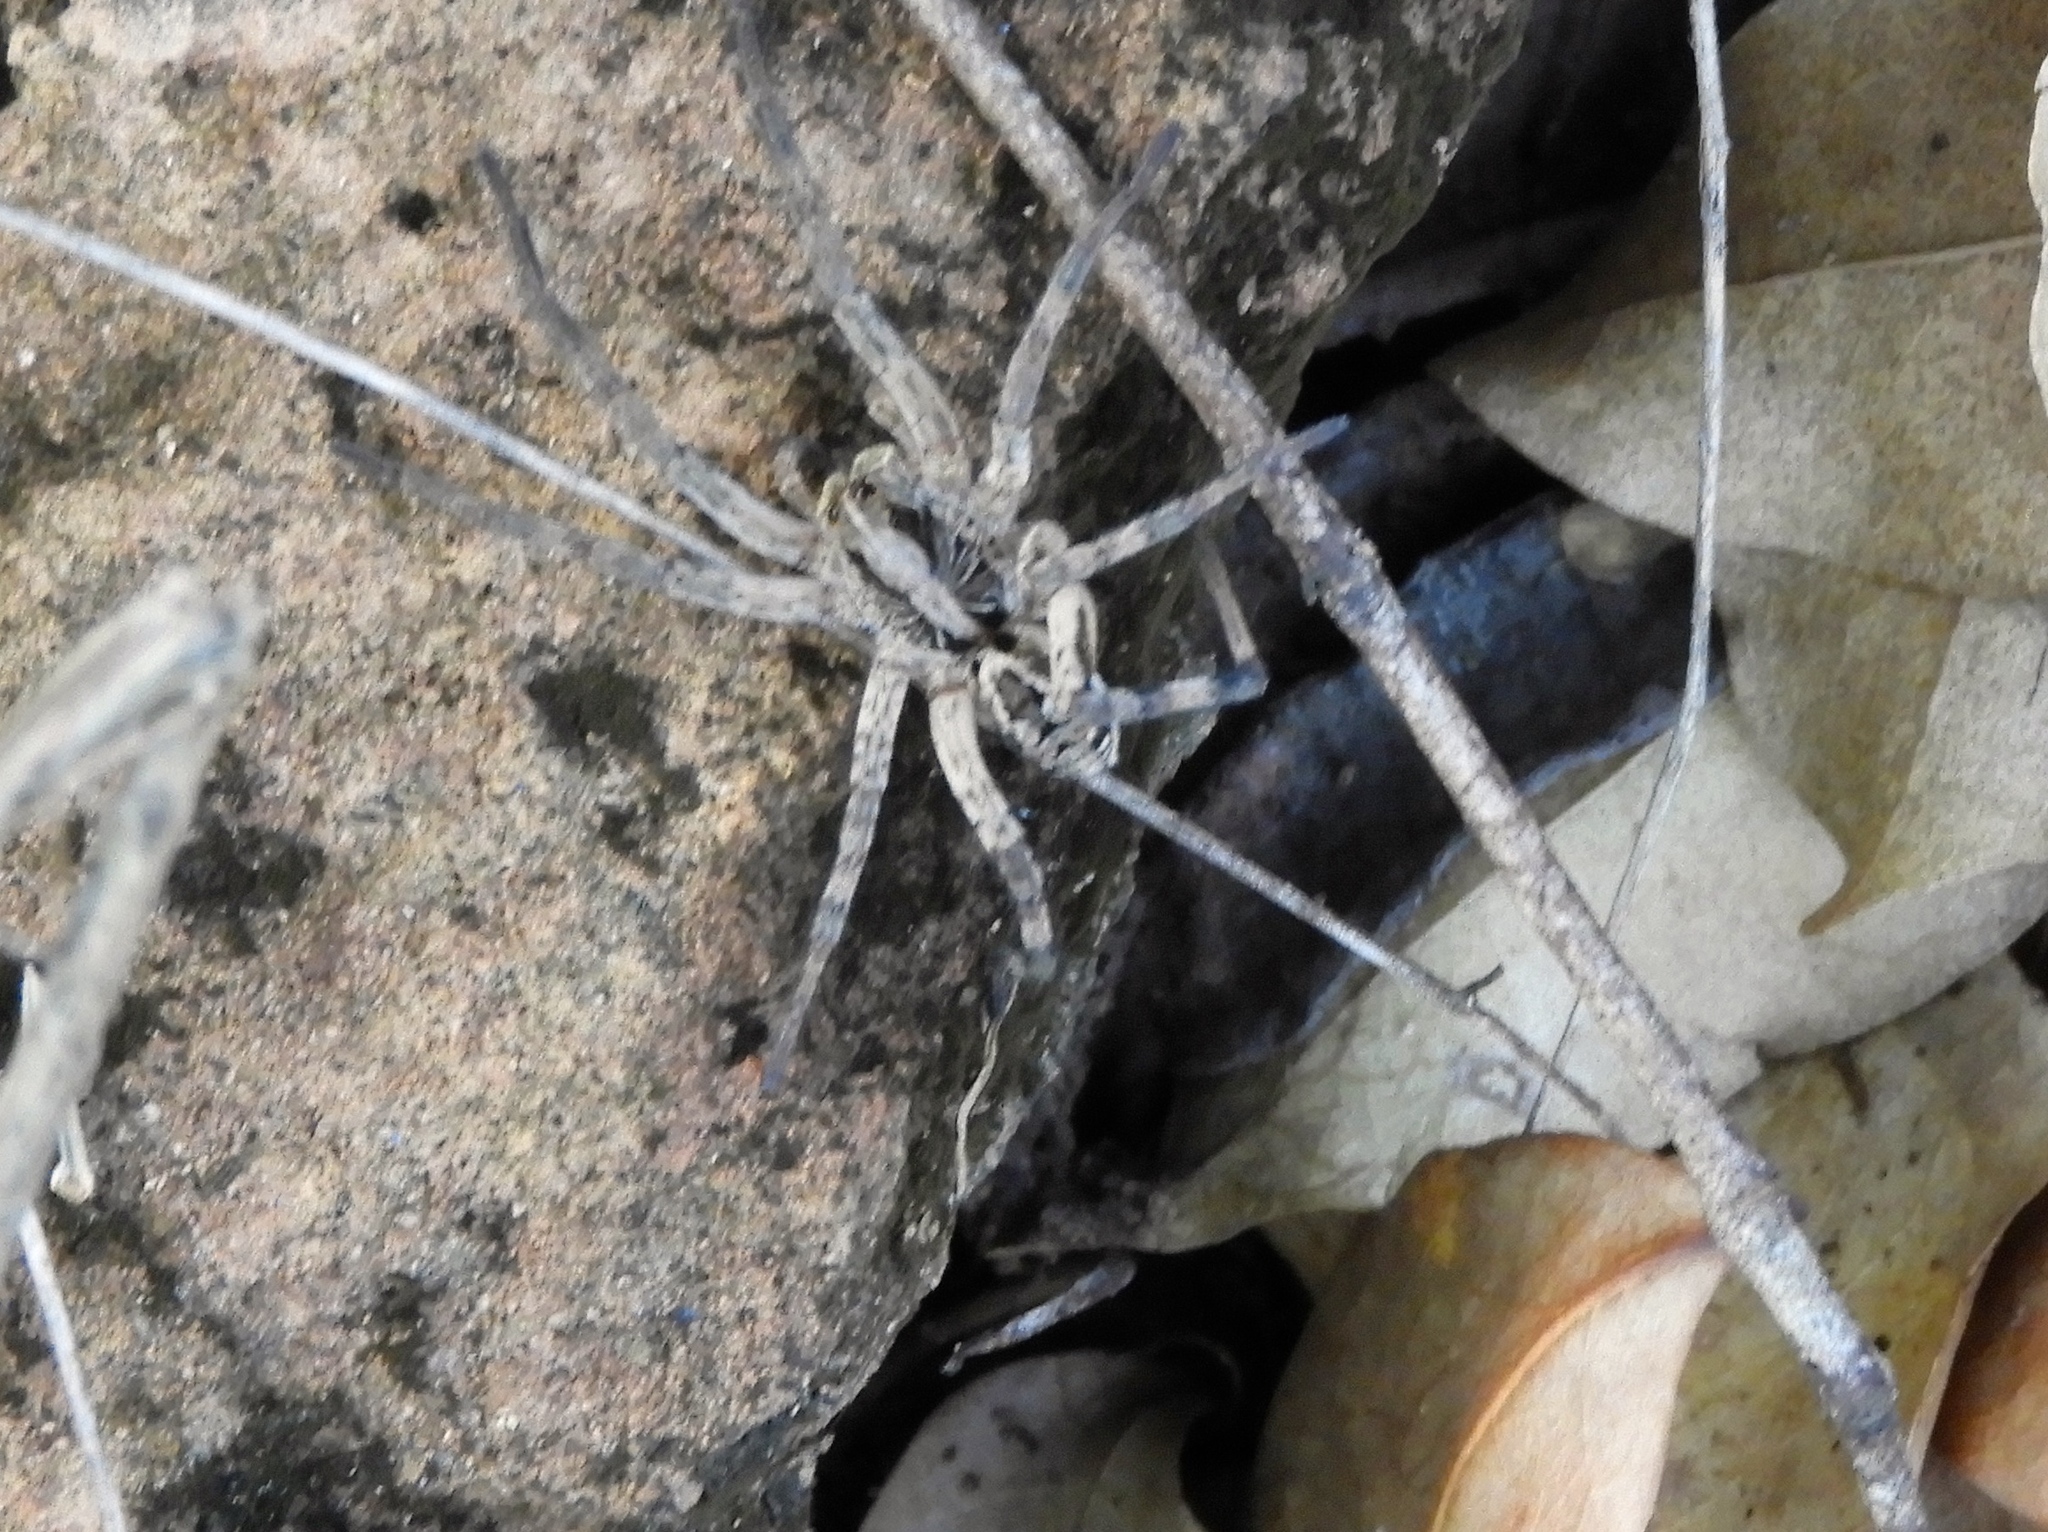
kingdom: Animalia
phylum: Arthropoda
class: Arachnida
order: Araneae
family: Lycosidae
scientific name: Lycosidae
